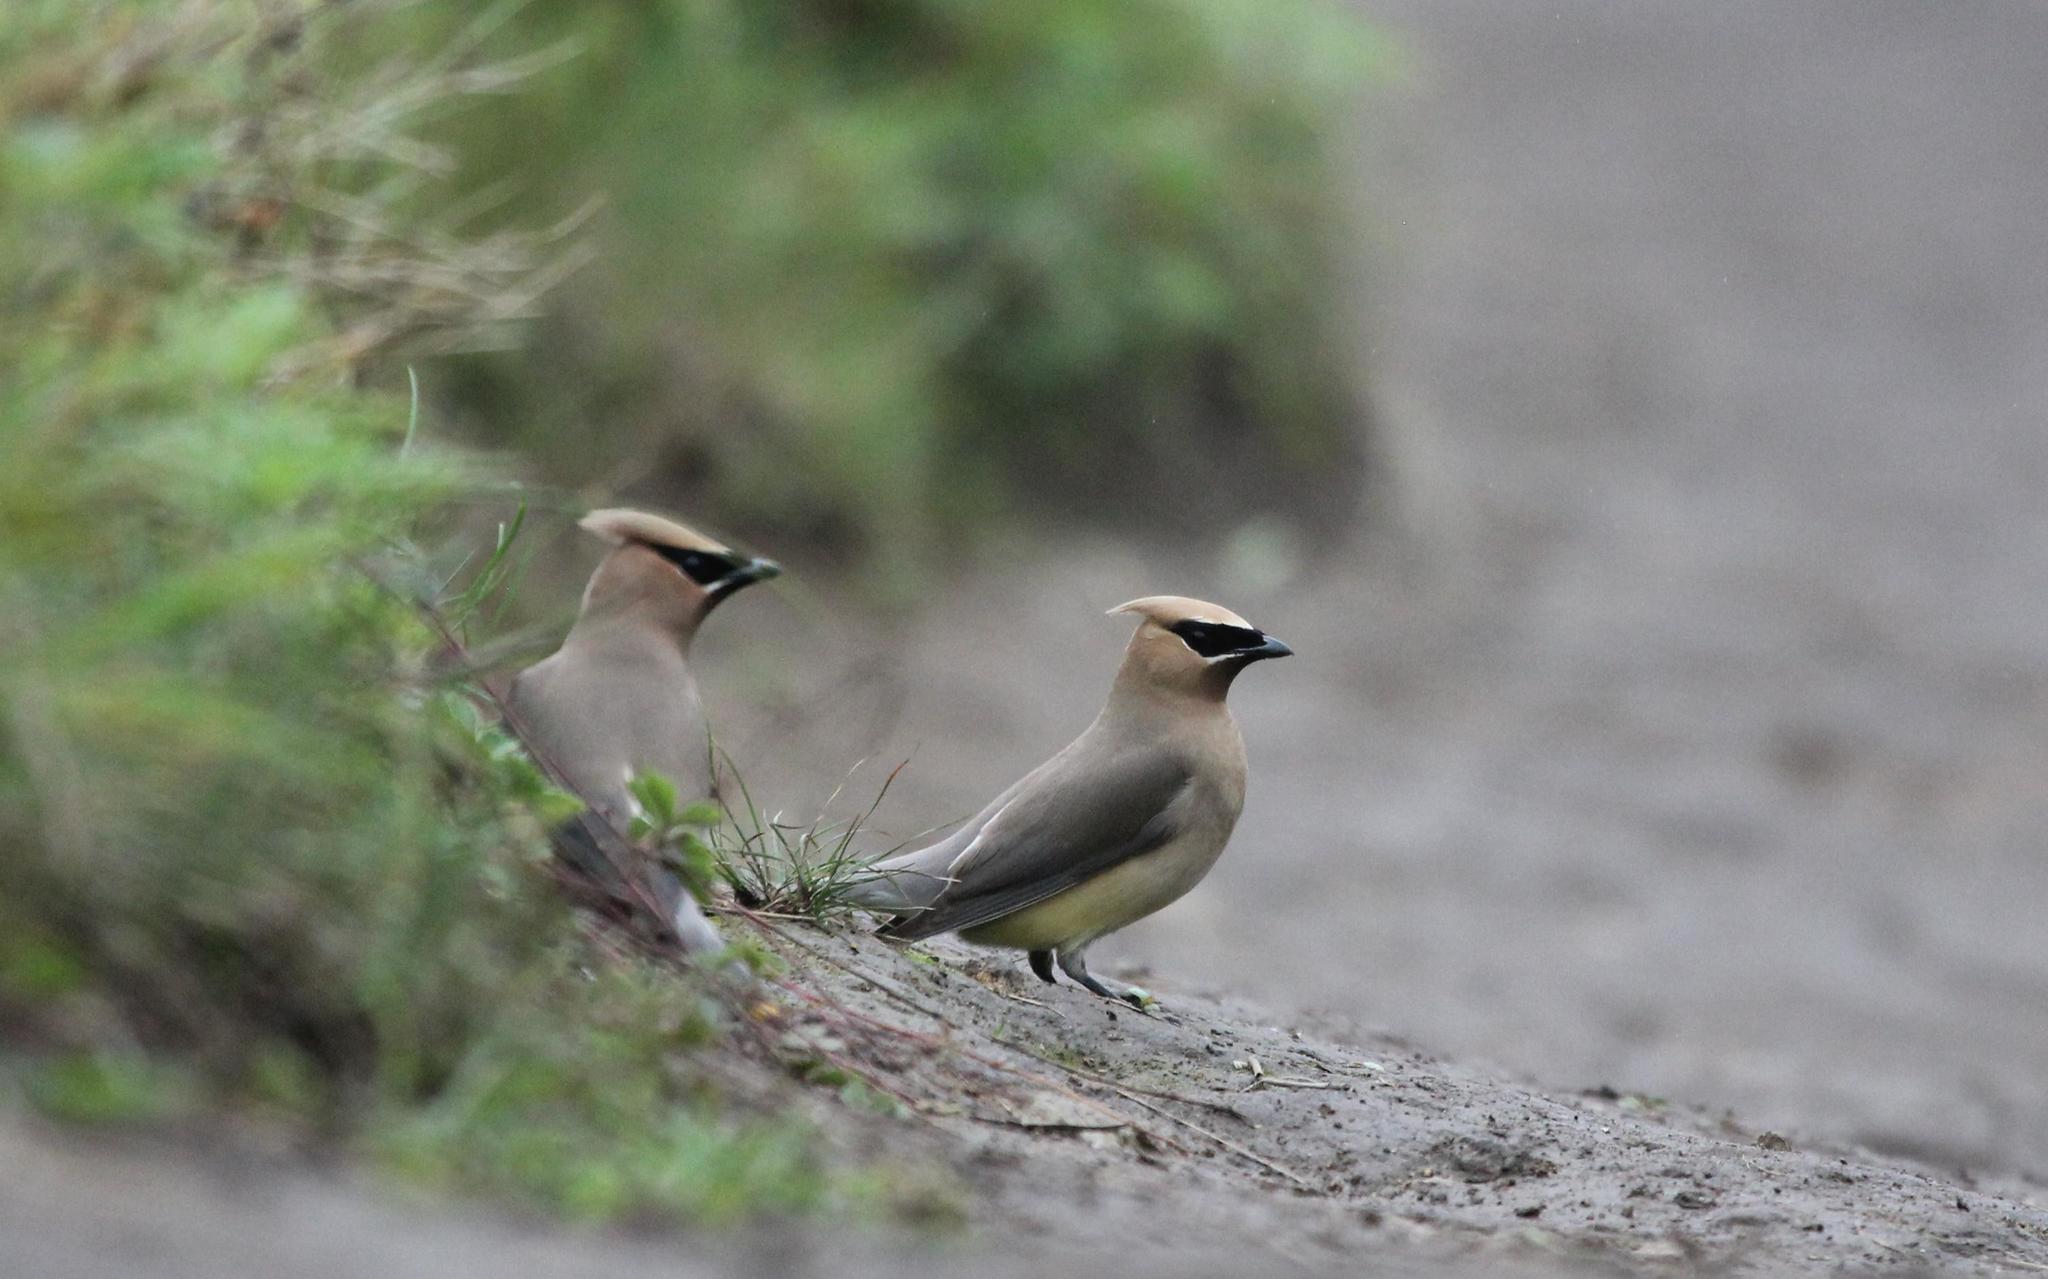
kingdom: Animalia
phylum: Chordata
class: Aves
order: Passeriformes
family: Bombycillidae
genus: Bombycilla
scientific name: Bombycilla cedrorum
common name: Cedar waxwing
